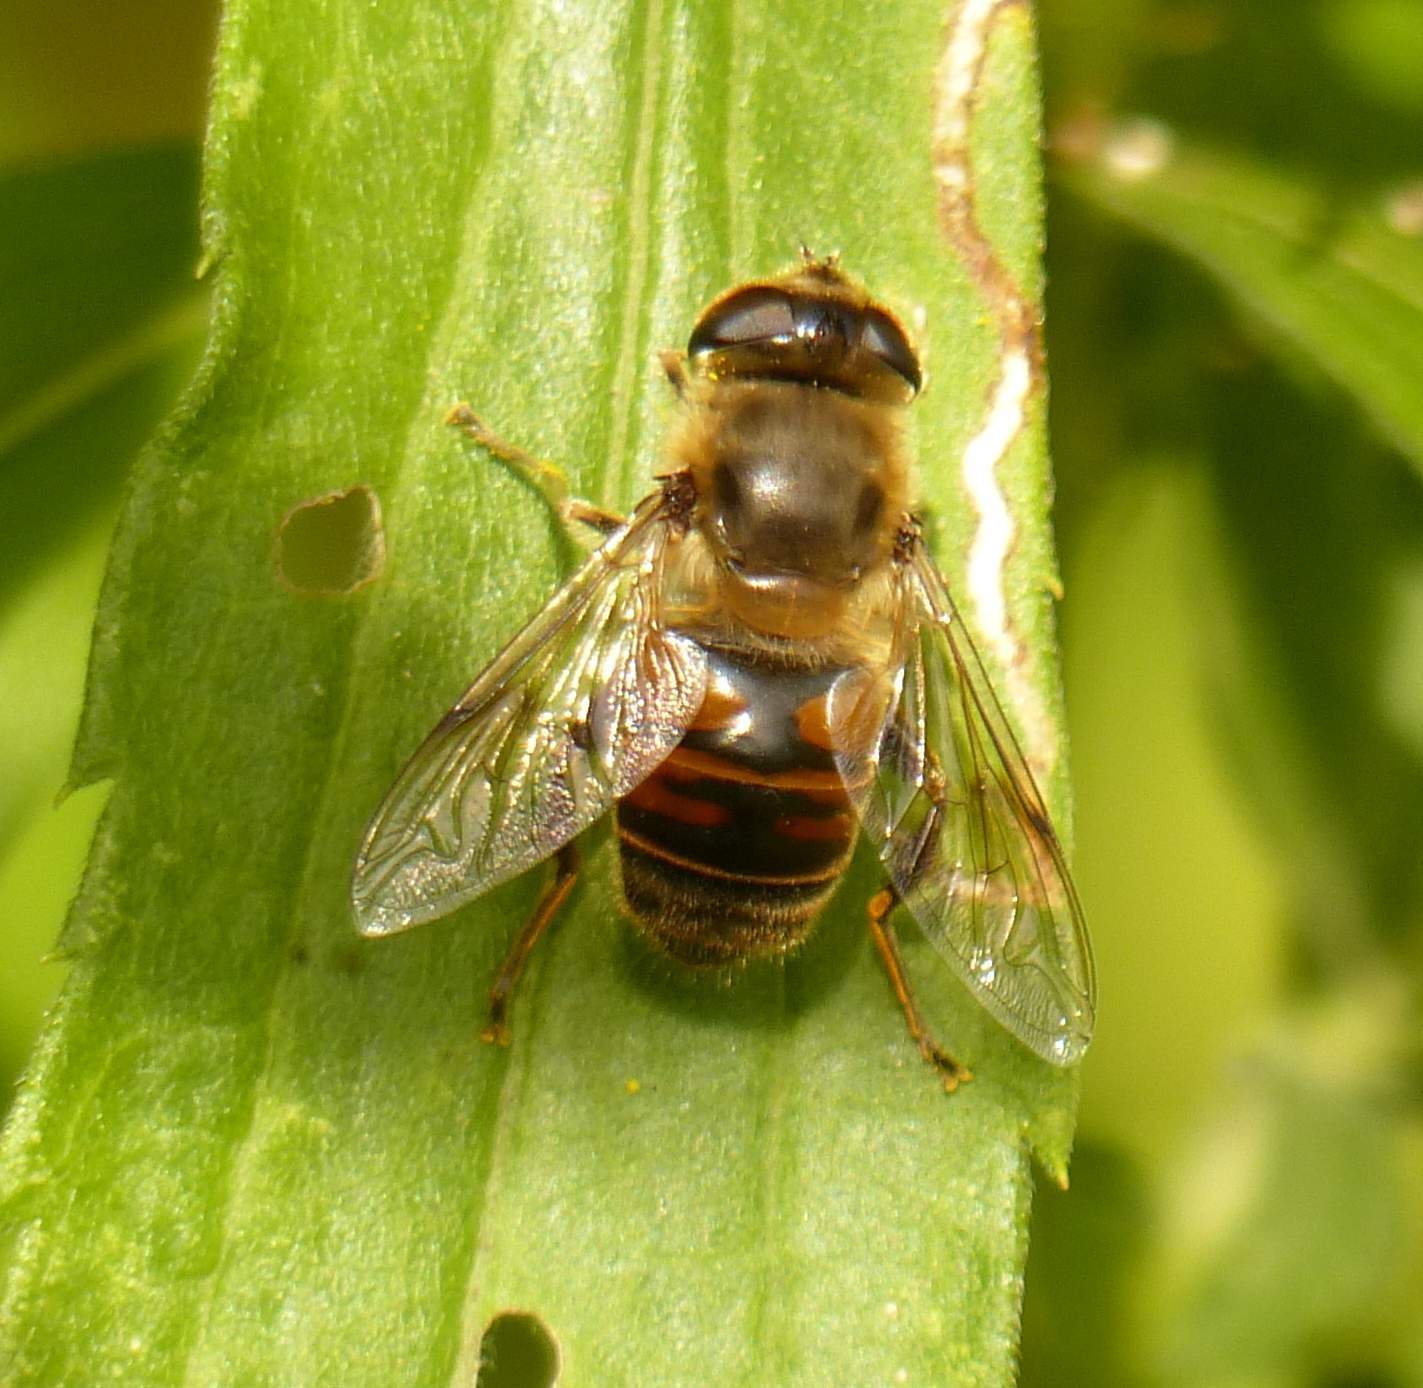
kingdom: Animalia
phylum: Arthropoda
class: Insecta
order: Diptera
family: Syrphidae
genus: Eristalis
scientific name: Eristalis tenax
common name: Drone fly
